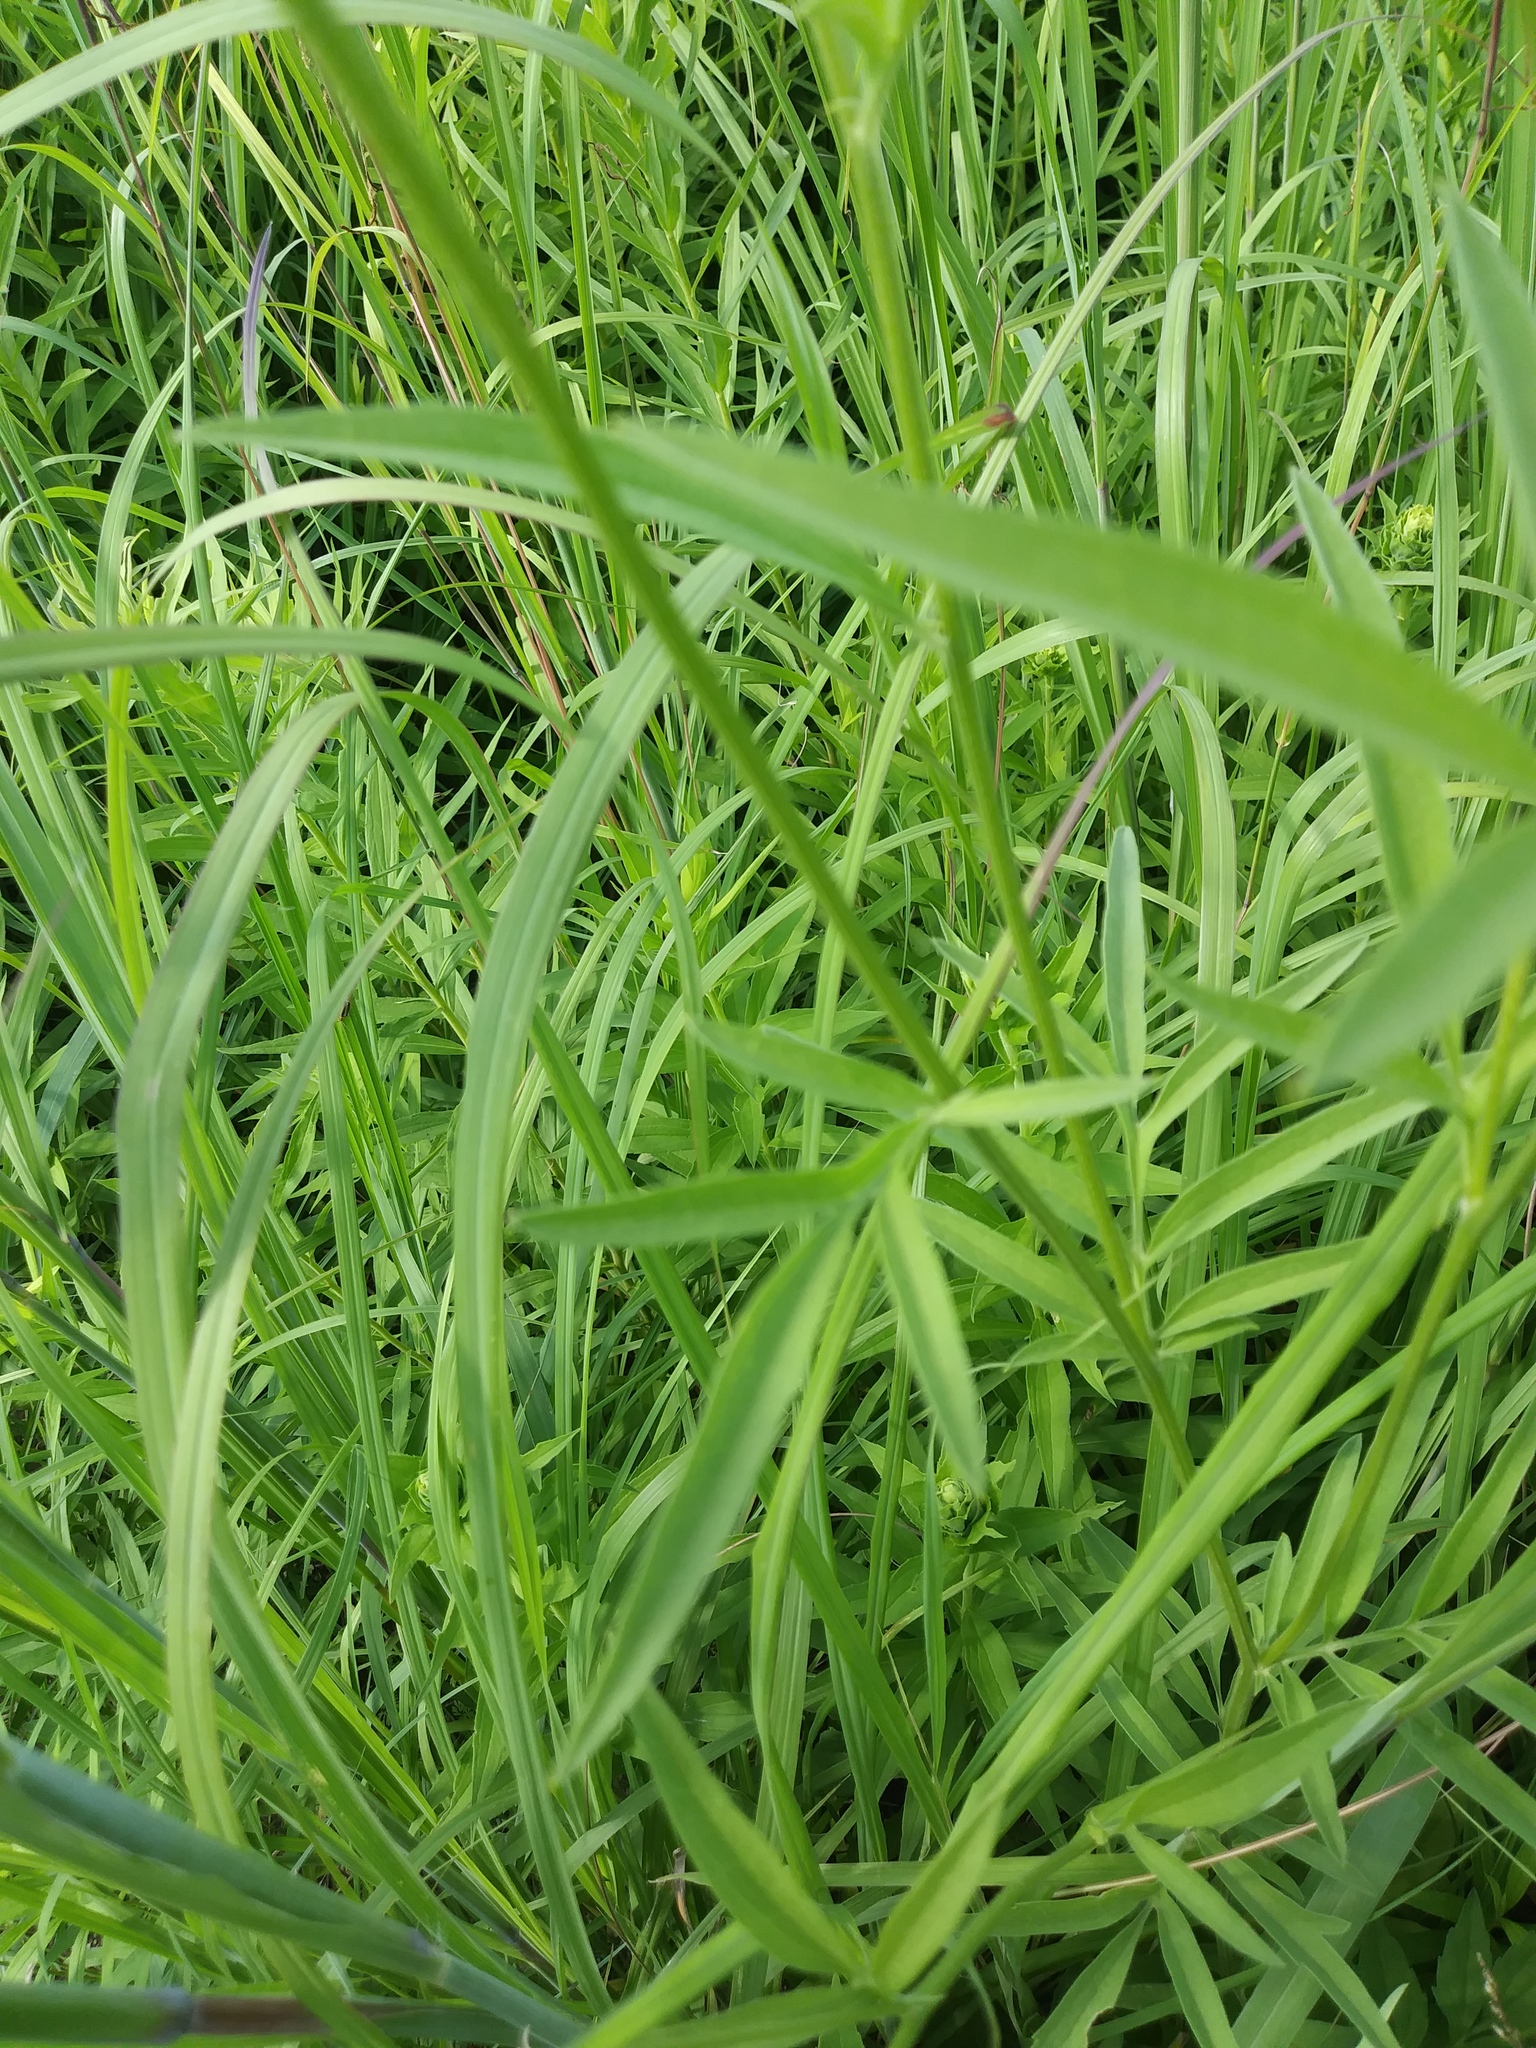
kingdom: Plantae
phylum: Tracheophyta
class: Magnoliopsida
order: Asterales
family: Asteraceae
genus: Ratibida
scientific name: Ratibida pinnata
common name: Drooping prairie-coneflower
